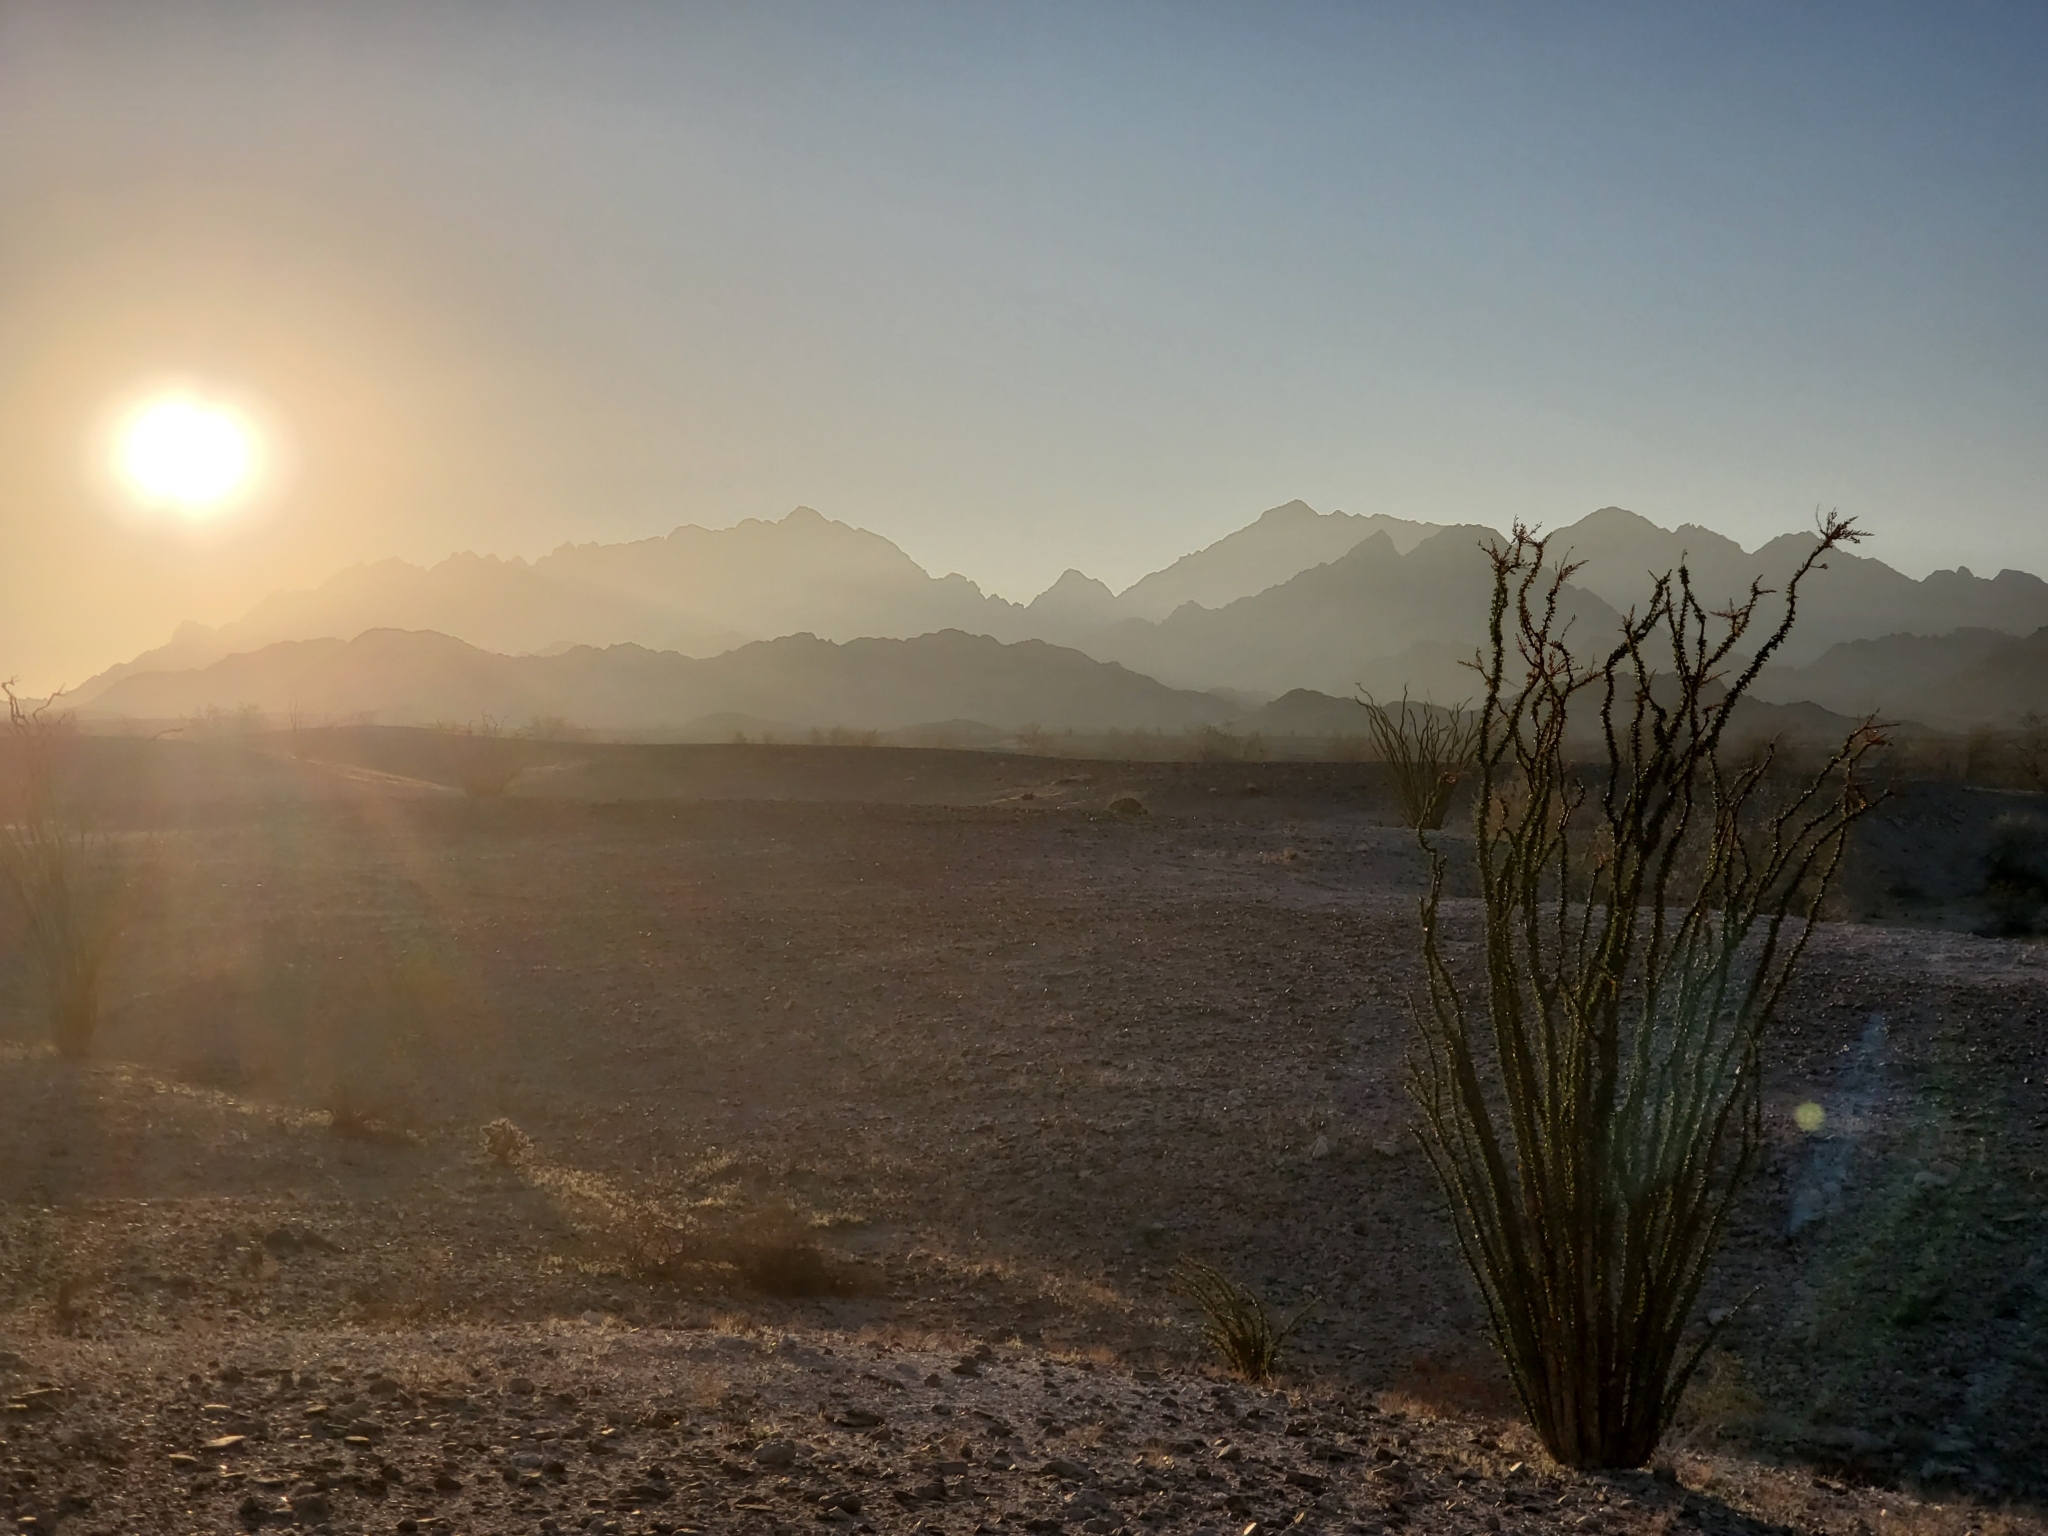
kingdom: Plantae
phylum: Tracheophyta
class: Magnoliopsida
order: Ericales
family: Fouquieriaceae
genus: Fouquieria
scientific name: Fouquieria splendens
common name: Vine-cactus
